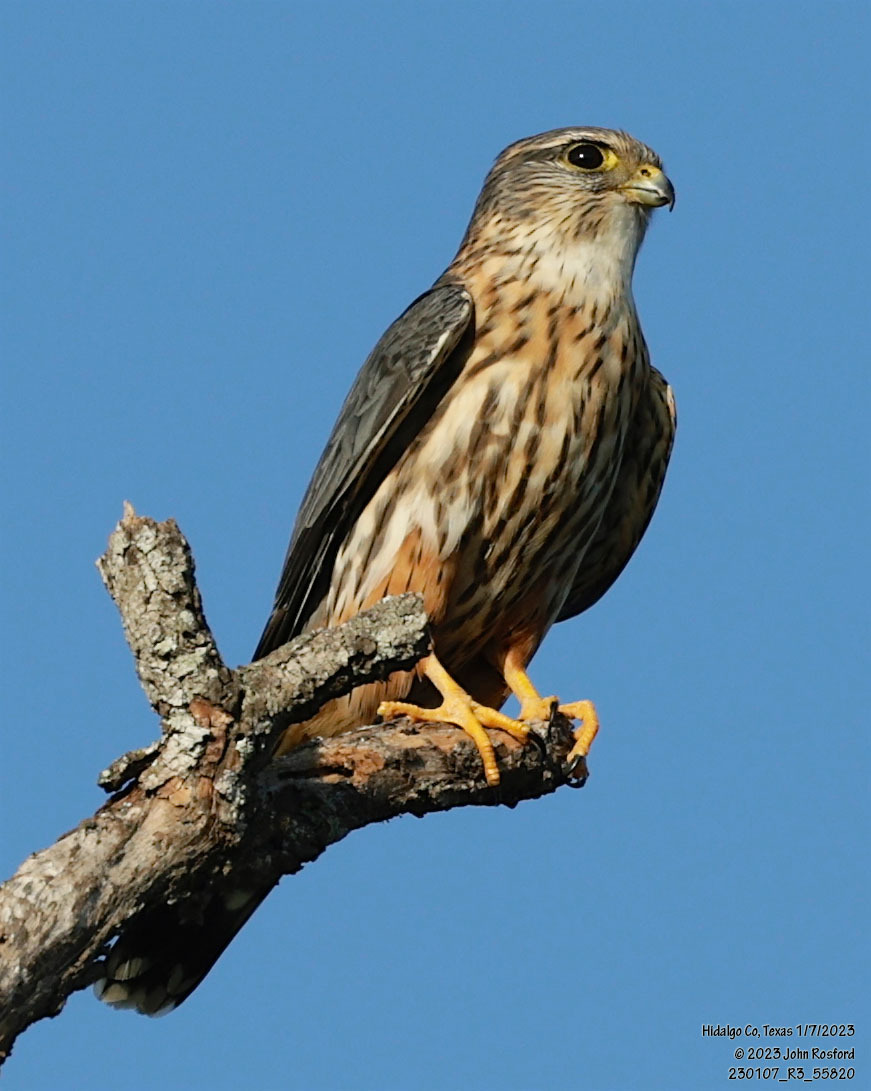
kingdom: Animalia
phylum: Chordata
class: Aves
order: Falconiformes
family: Falconidae
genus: Falco
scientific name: Falco columbarius
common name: Merlin
